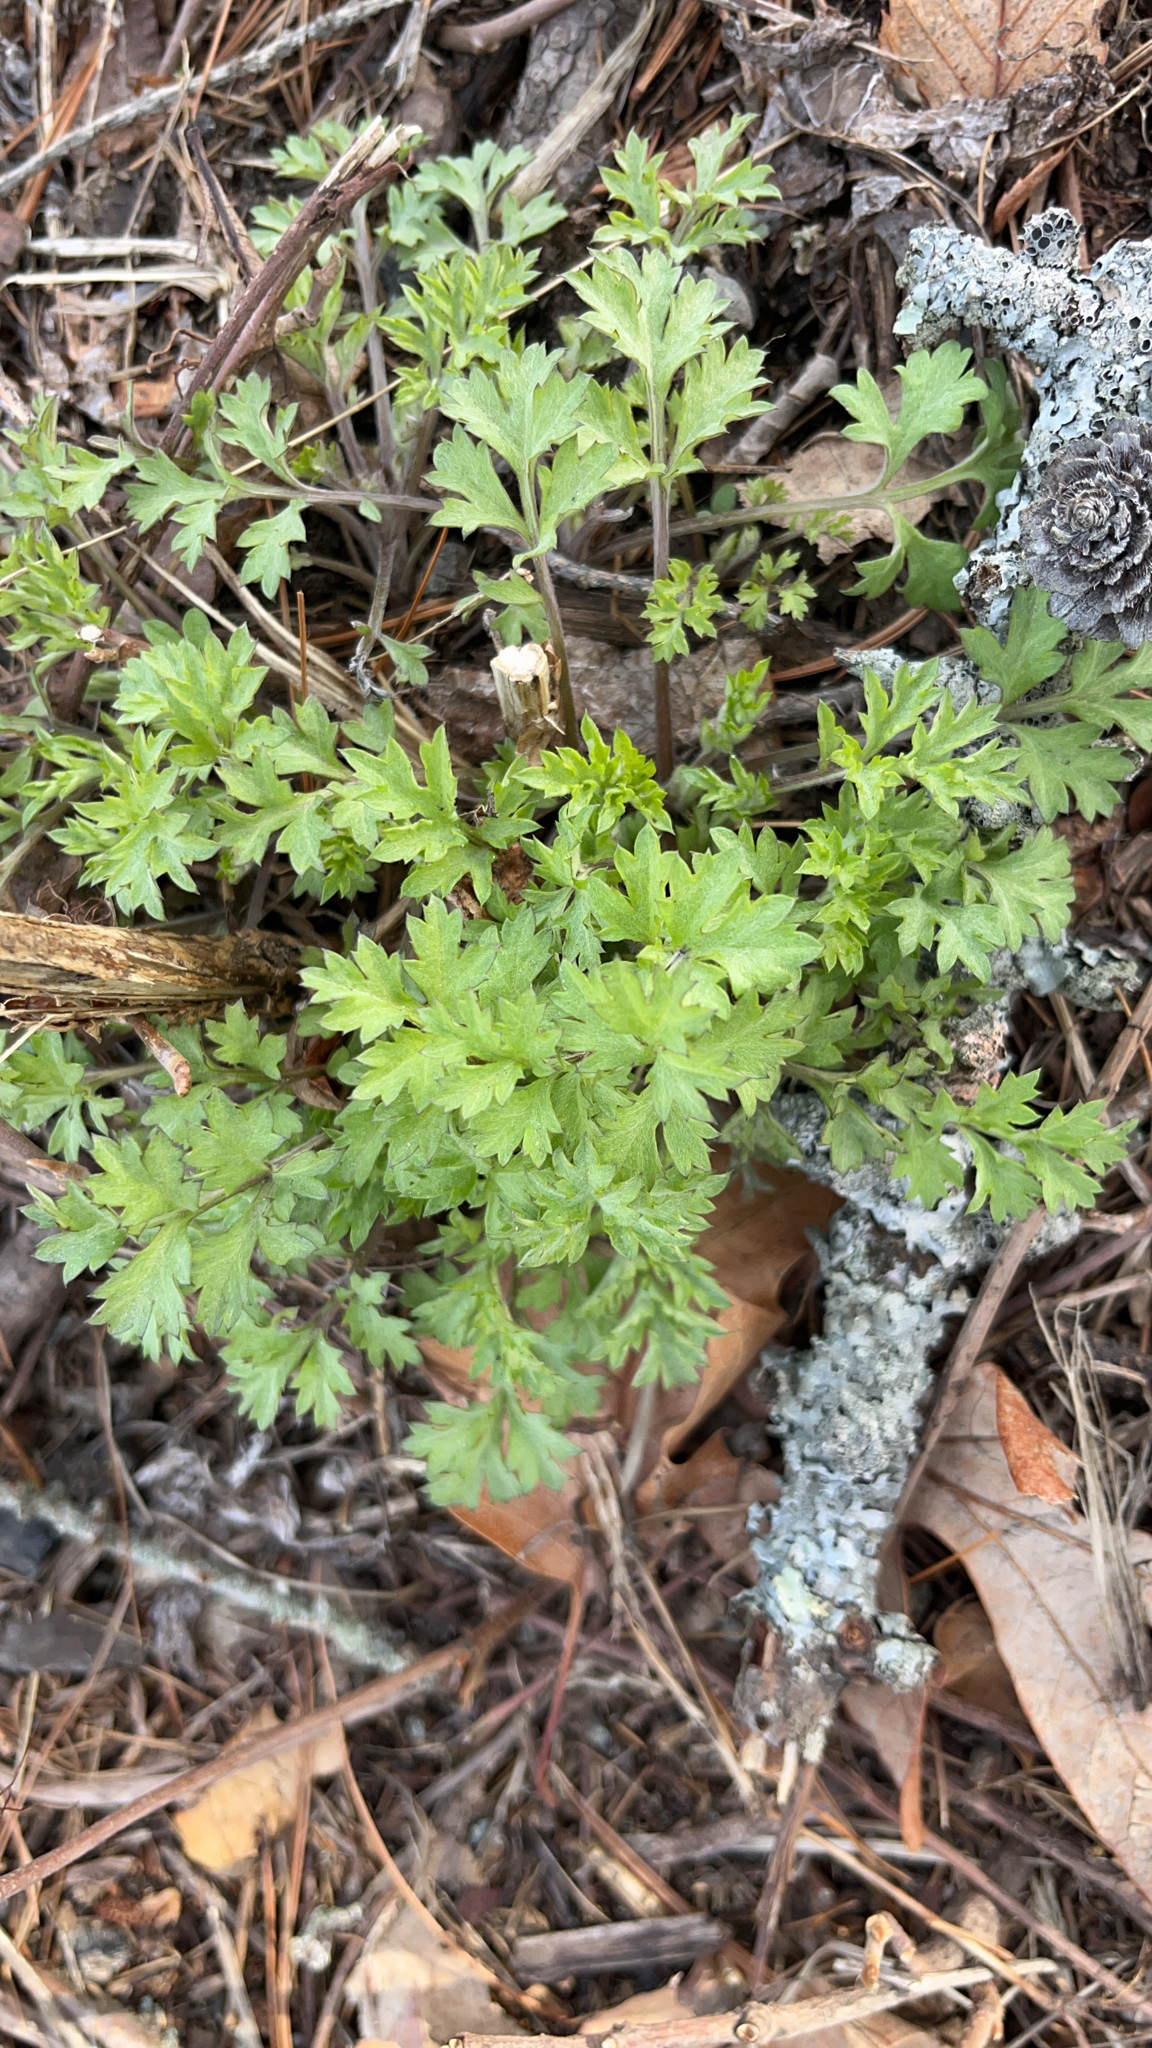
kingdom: Plantae
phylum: Tracheophyta
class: Magnoliopsida
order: Asterales
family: Asteraceae
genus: Artemisia
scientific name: Artemisia vulgaris
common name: Mugwort
